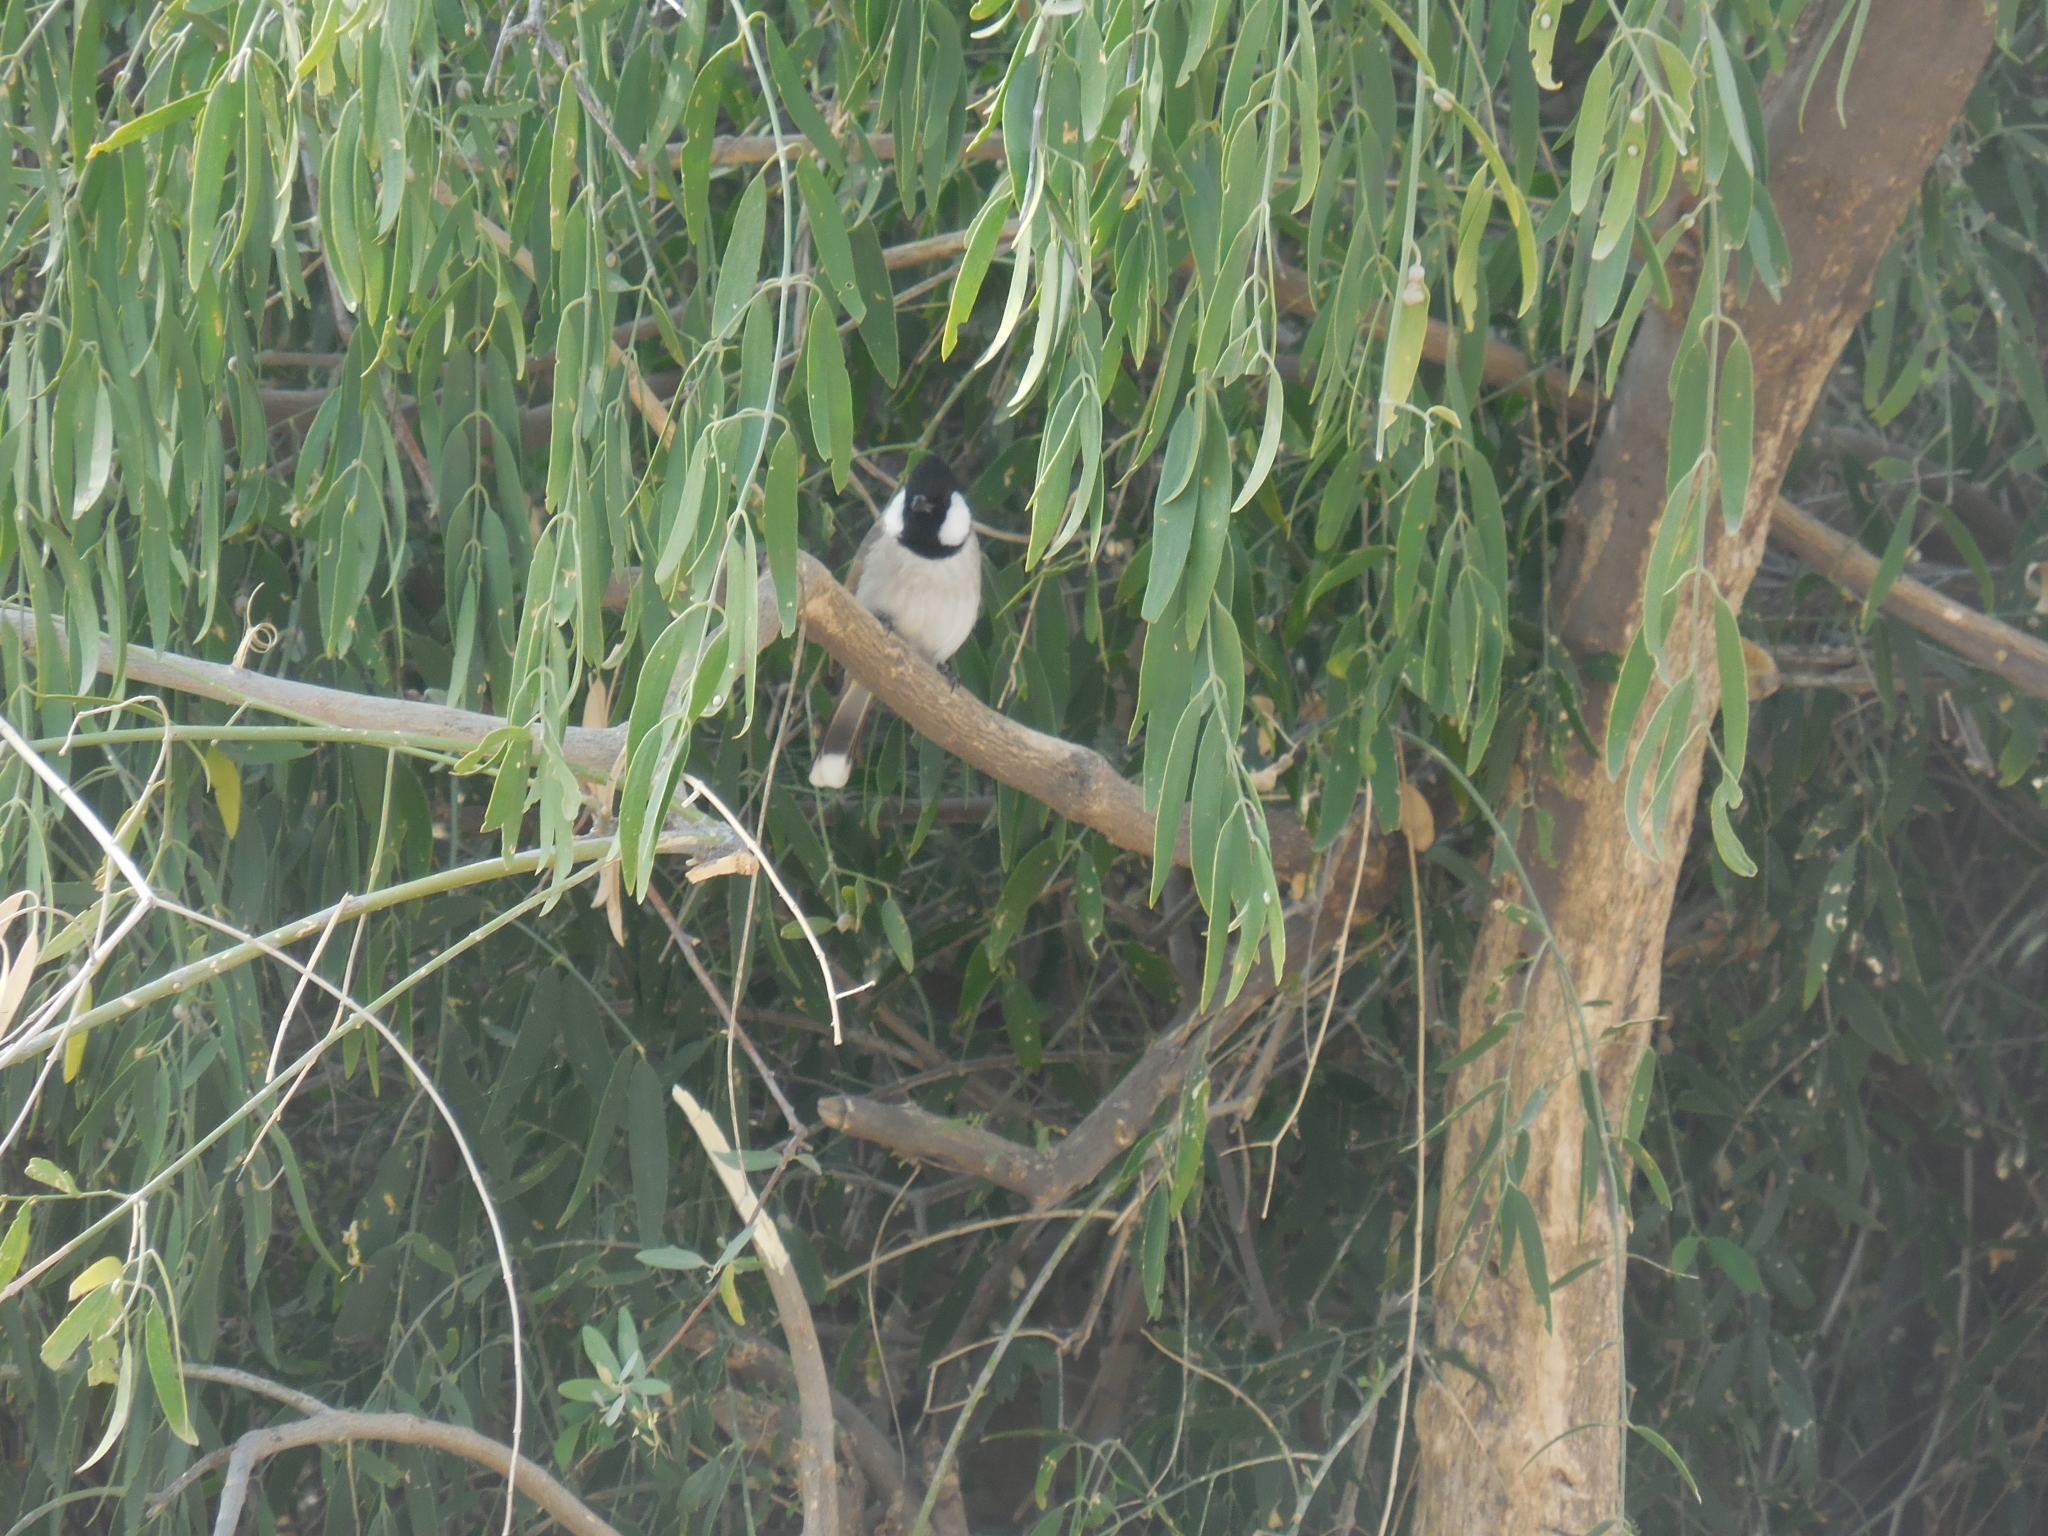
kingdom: Animalia
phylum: Chordata
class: Aves
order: Passeriformes
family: Pycnonotidae
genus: Pycnonotus
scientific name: Pycnonotus leucotis
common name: White-eared bulbul
